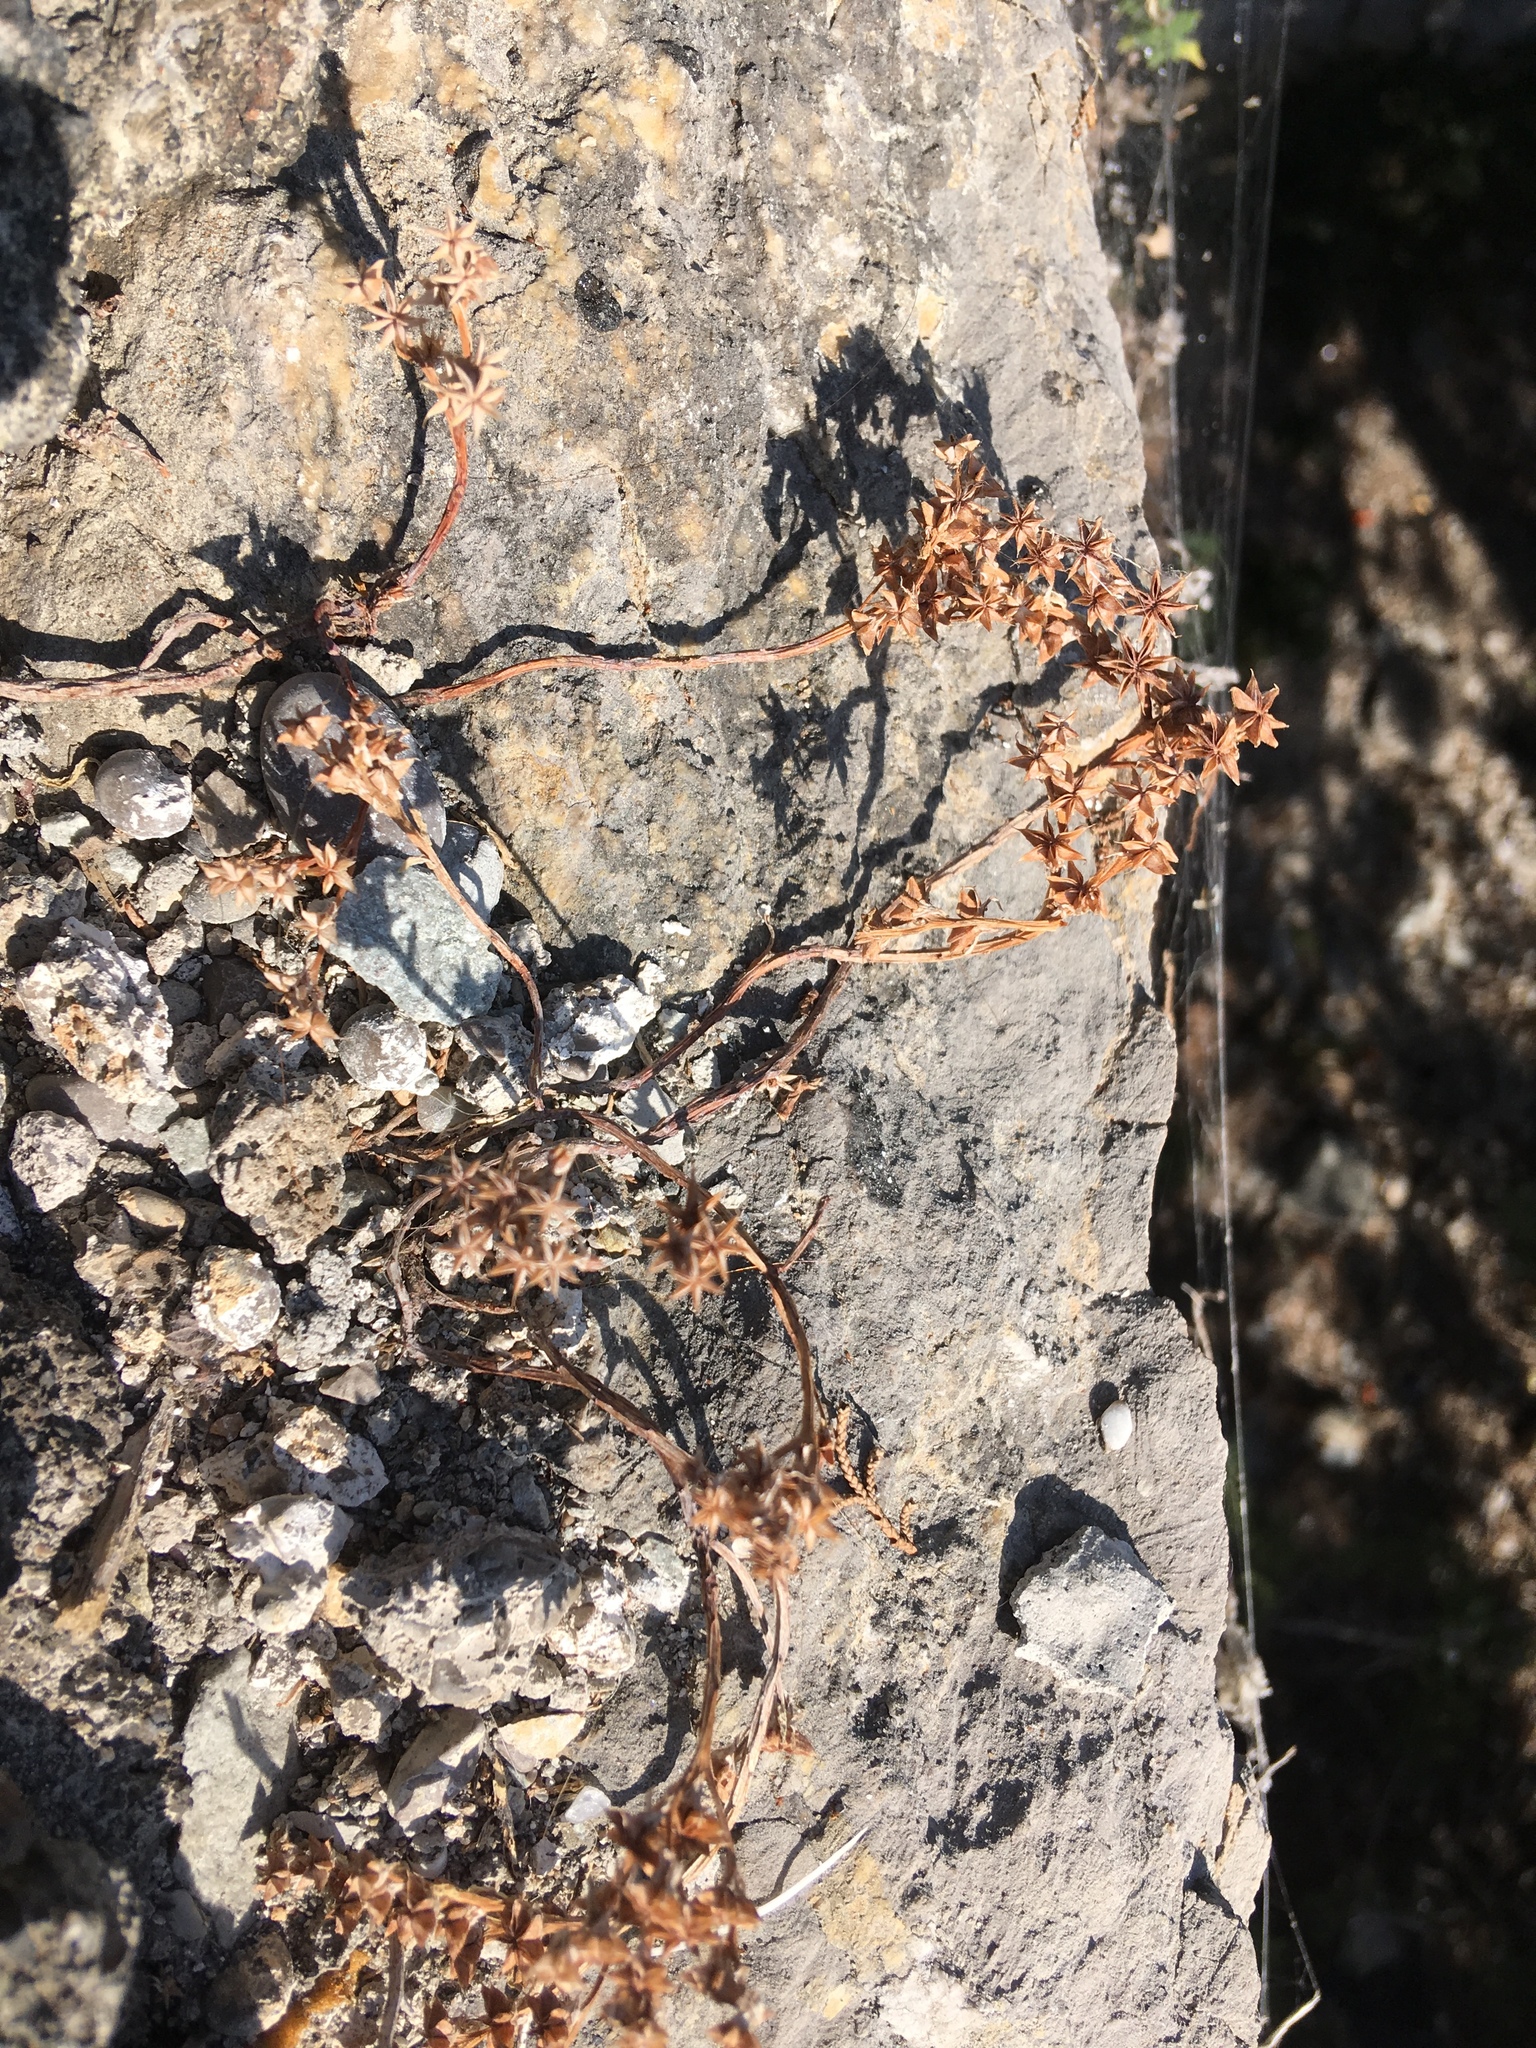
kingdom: Plantae
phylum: Tracheophyta
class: Magnoliopsida
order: Saxifragales
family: Crassulaceae
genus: Sedum
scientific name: Sedum hispanicum
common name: Spanish stonecrop
